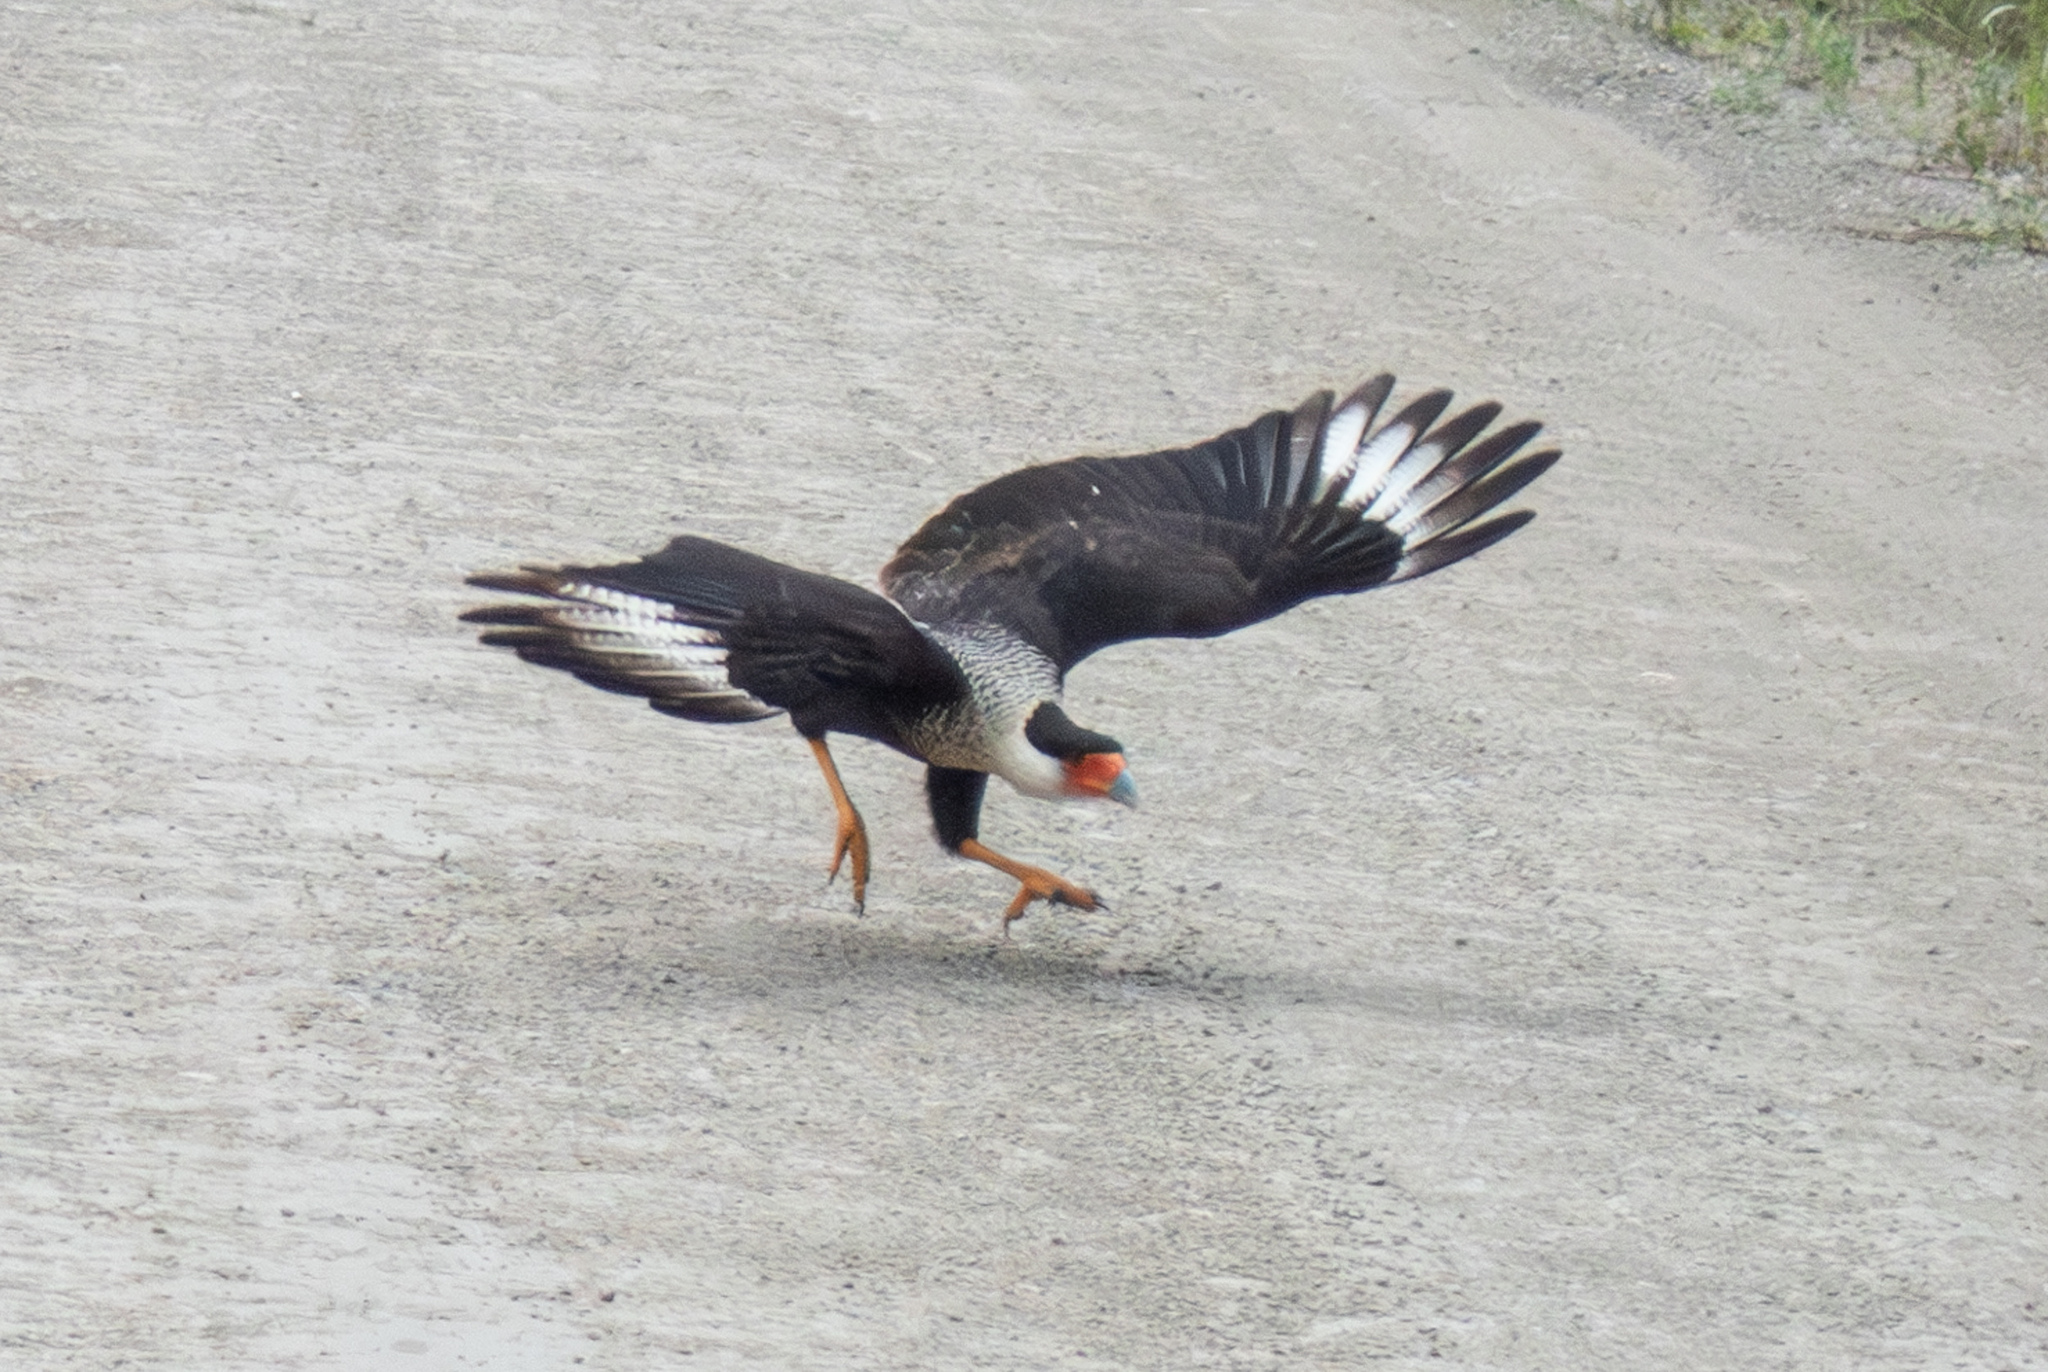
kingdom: Animalia
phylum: Chordata
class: Aves
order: Falconiformes
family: Falconidae
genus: Caracara
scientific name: Caracara plancus
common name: Southern caracara
